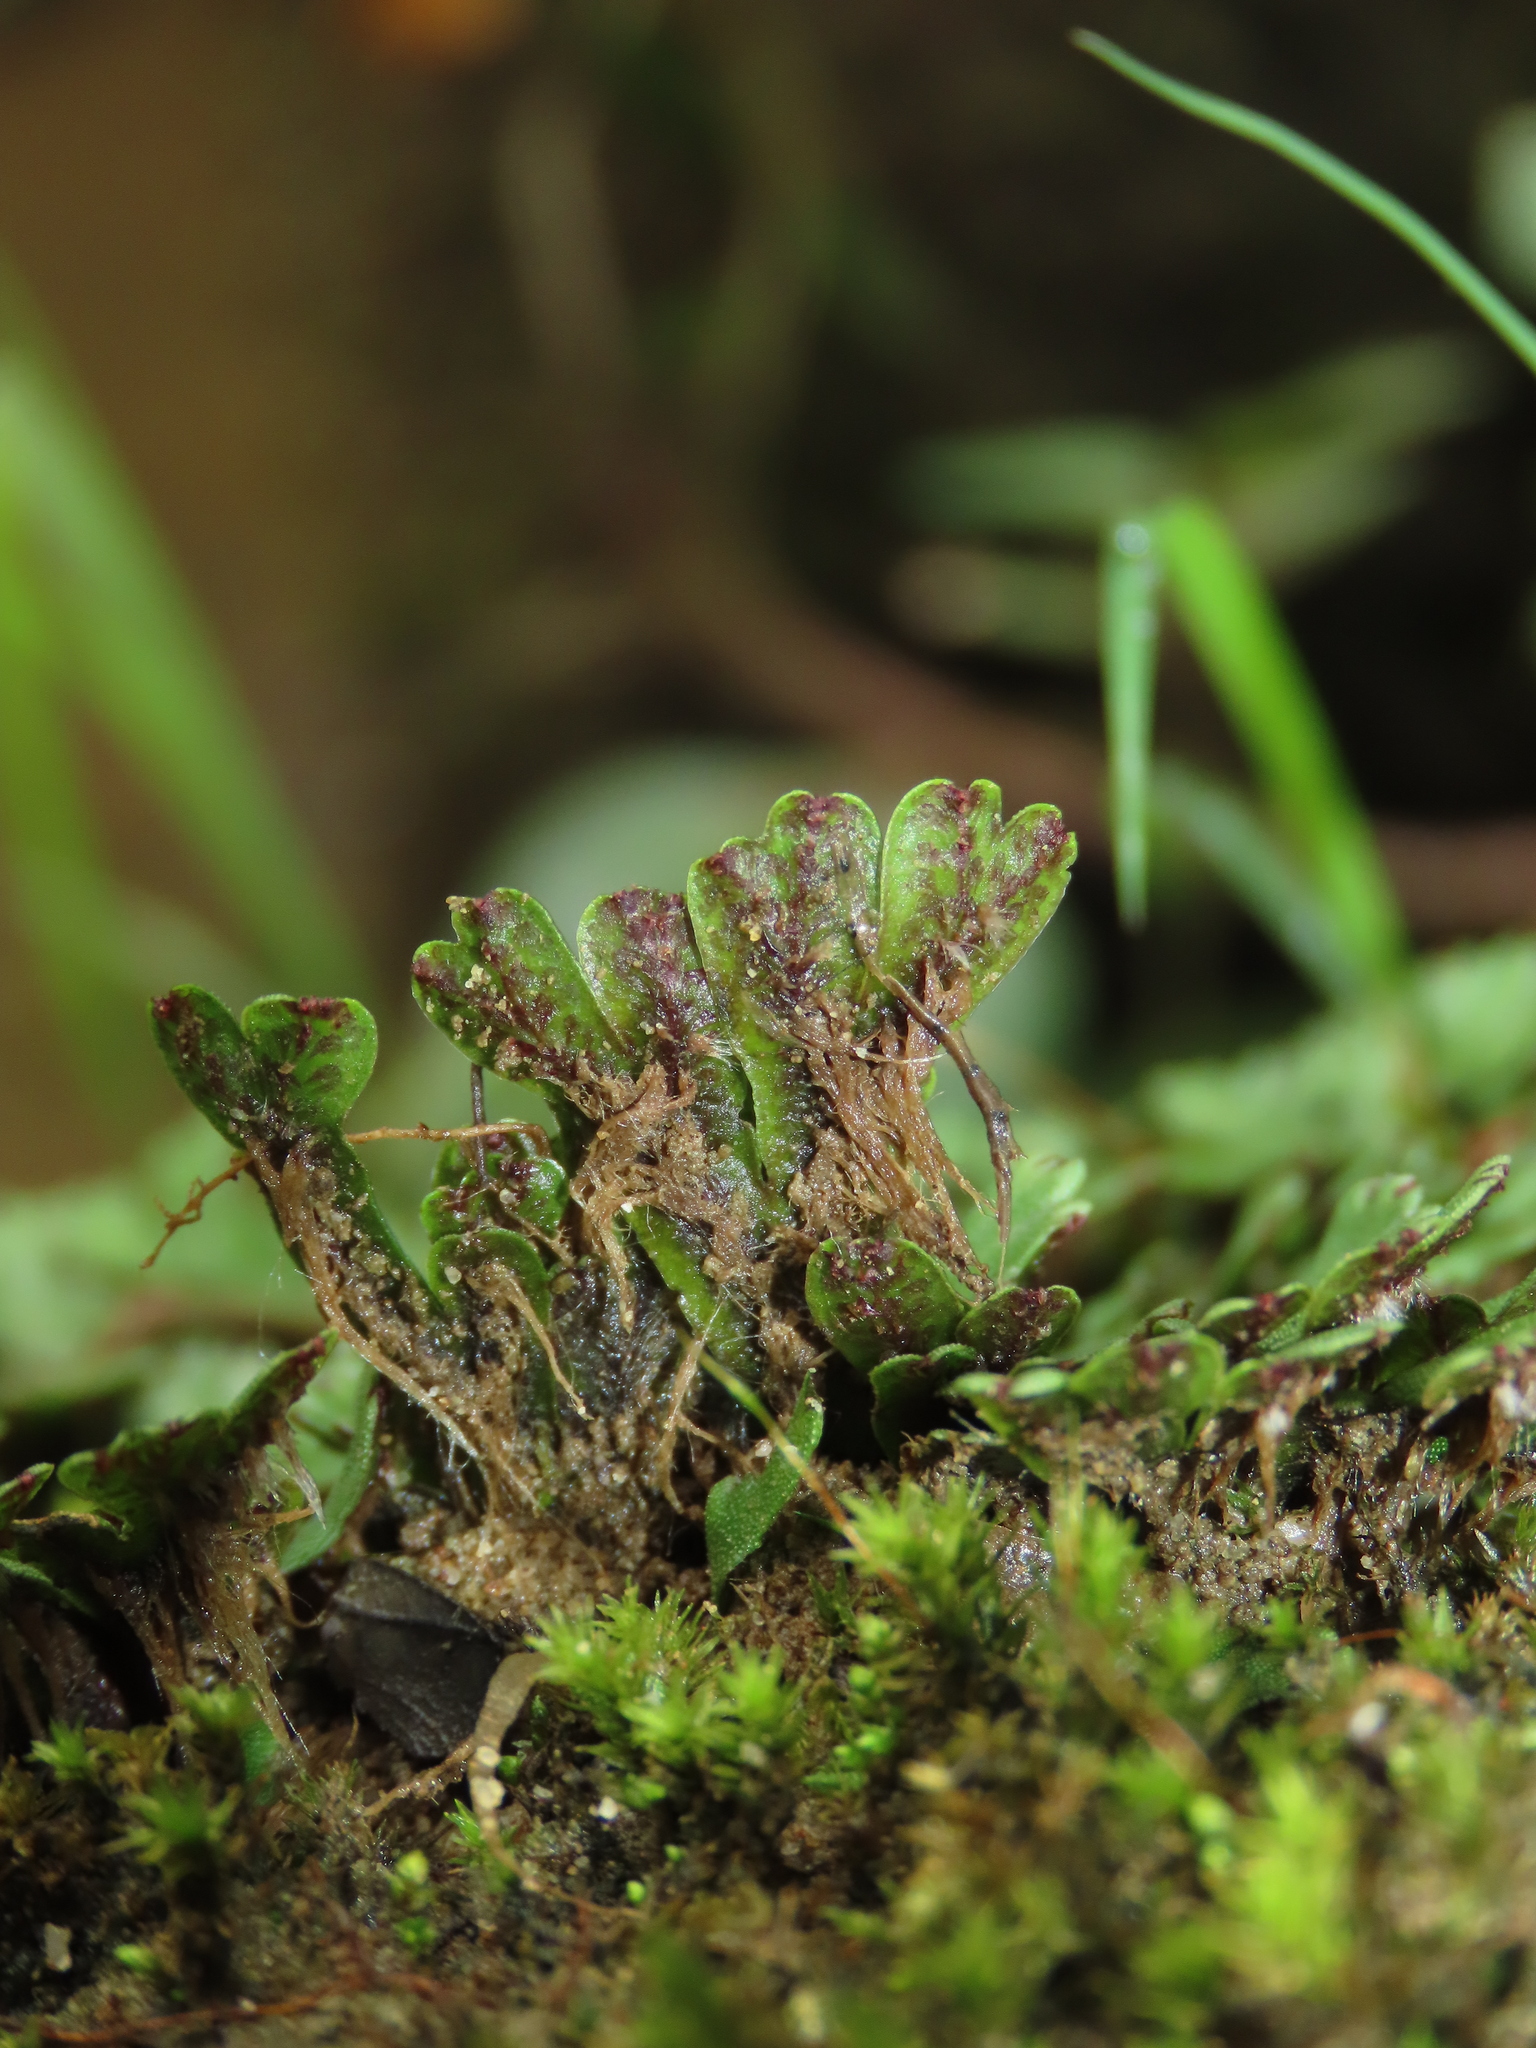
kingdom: Plantae
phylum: Marchantiophyta
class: Marchantiopsida
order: Marchantiales
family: Marchantiaceae
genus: Marchantia
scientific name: Marchantia emarginata
